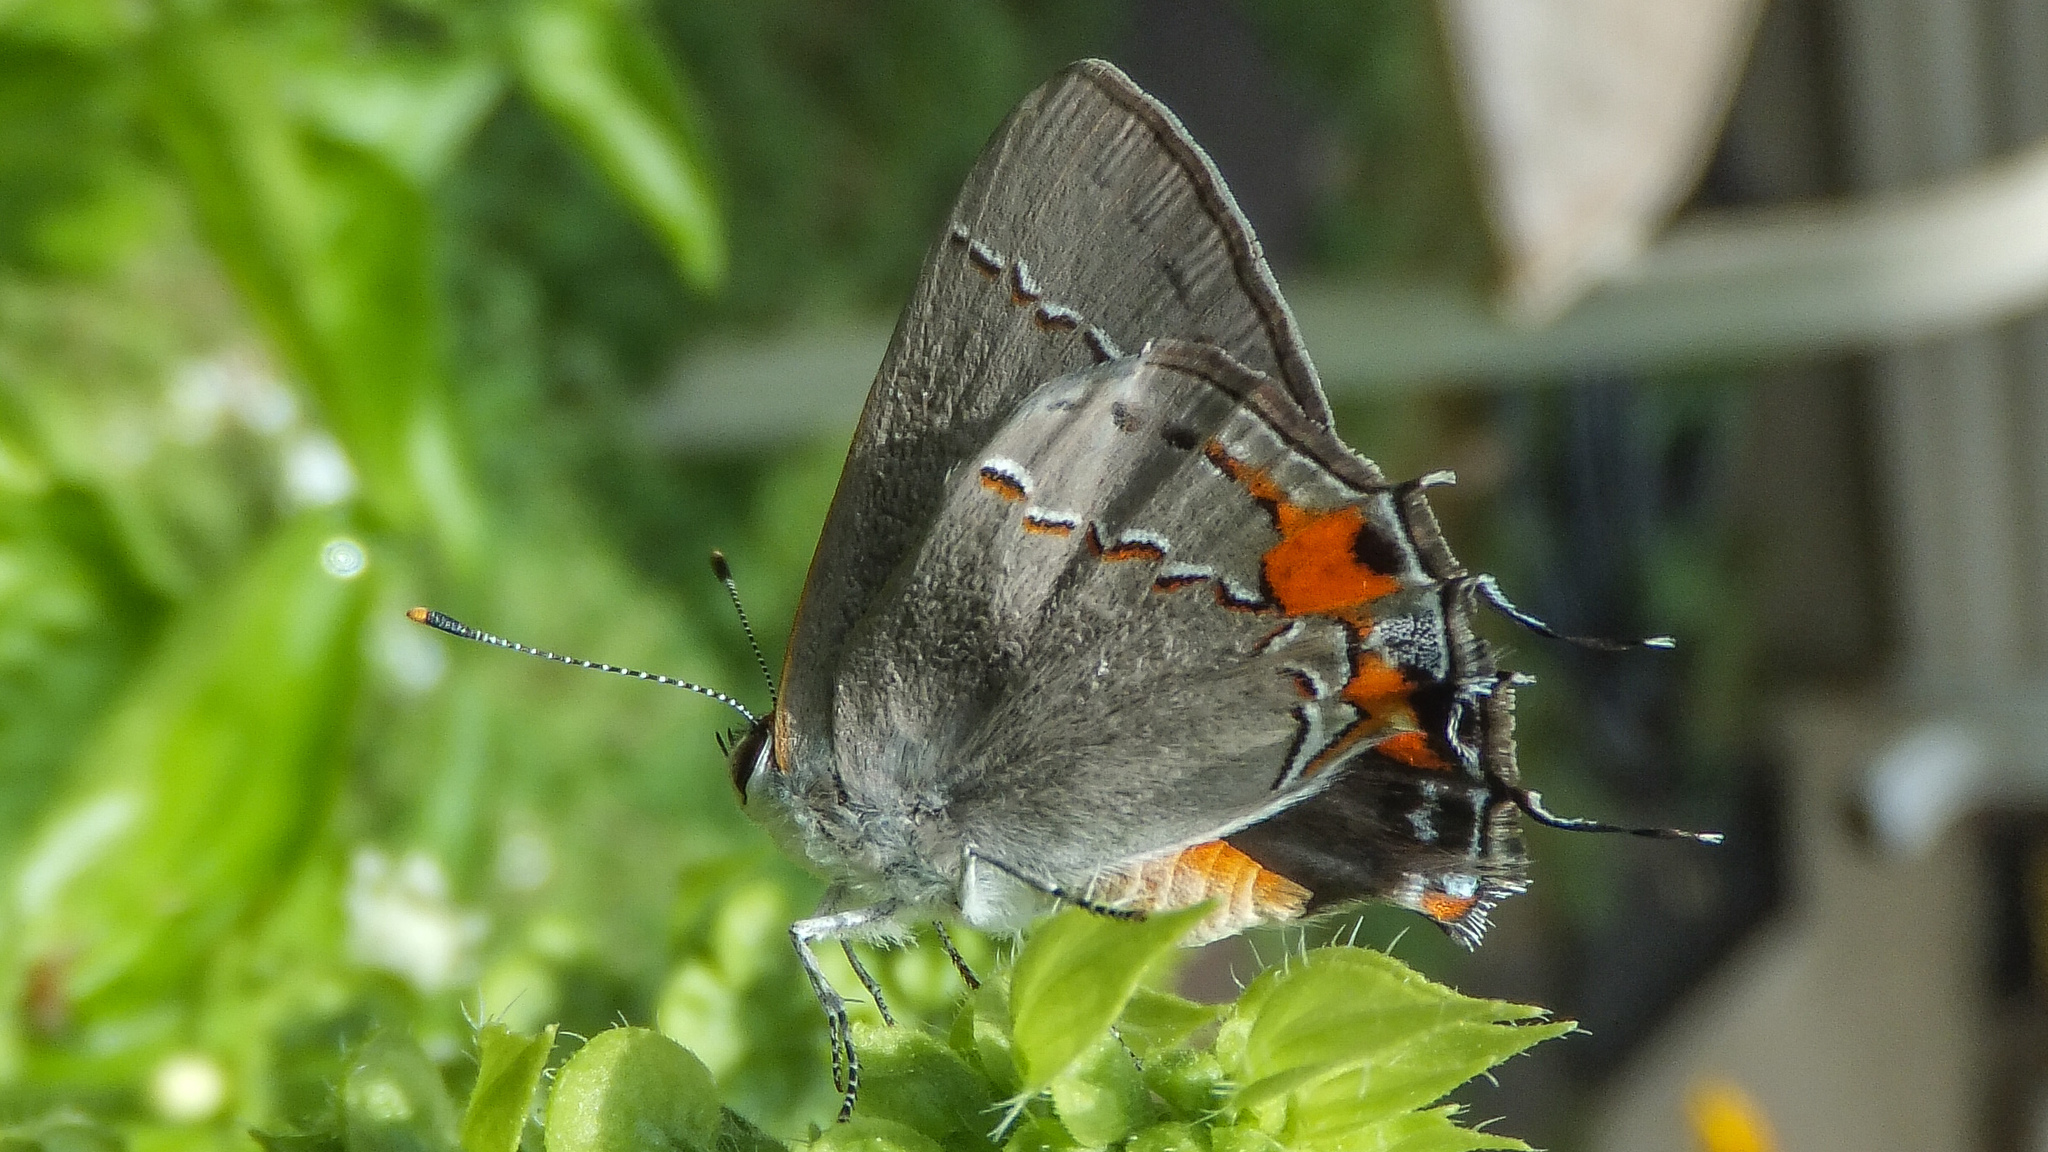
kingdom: Animalia
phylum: Arthropoda
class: Insecta
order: Lepidoptera
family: Lycaenidae
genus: Strymon
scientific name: Strymon melinus
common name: Gray hairstreak
